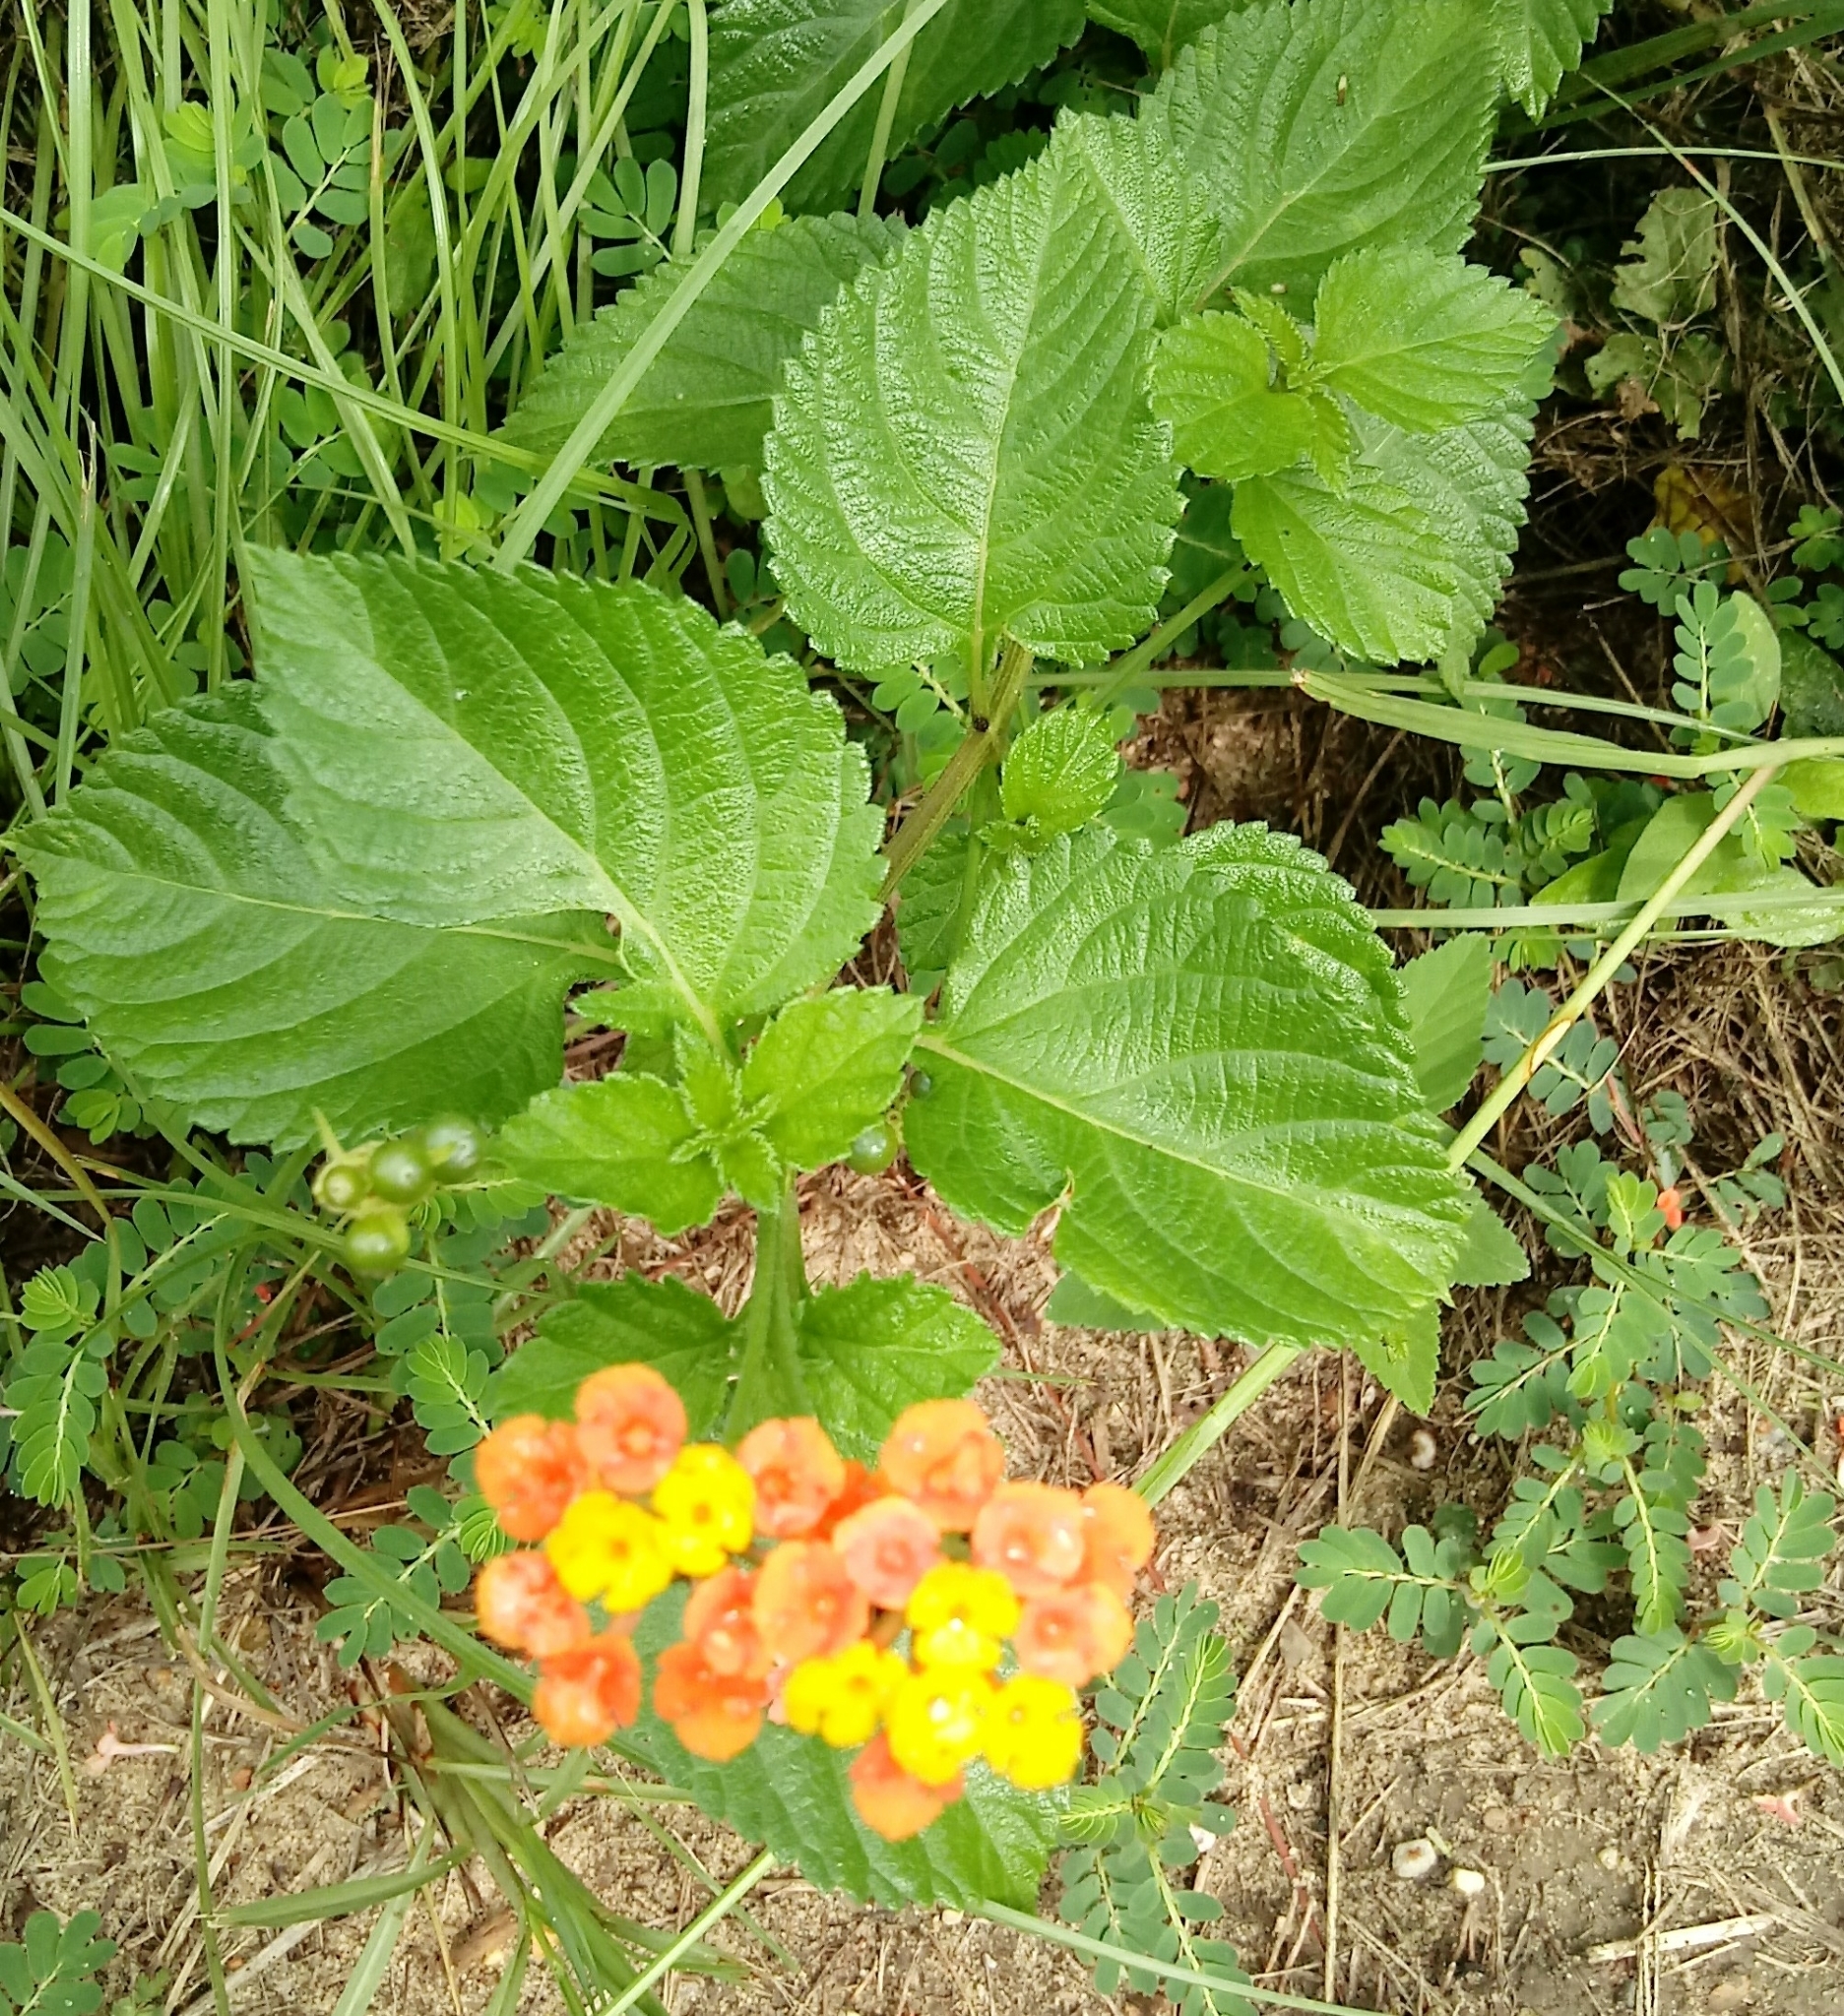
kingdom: Plantae
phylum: Tracheophyta
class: Magnoliopsida
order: Lamiales
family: Verbenaceae
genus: Lantana
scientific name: Lantana strigocamara
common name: Lantana
